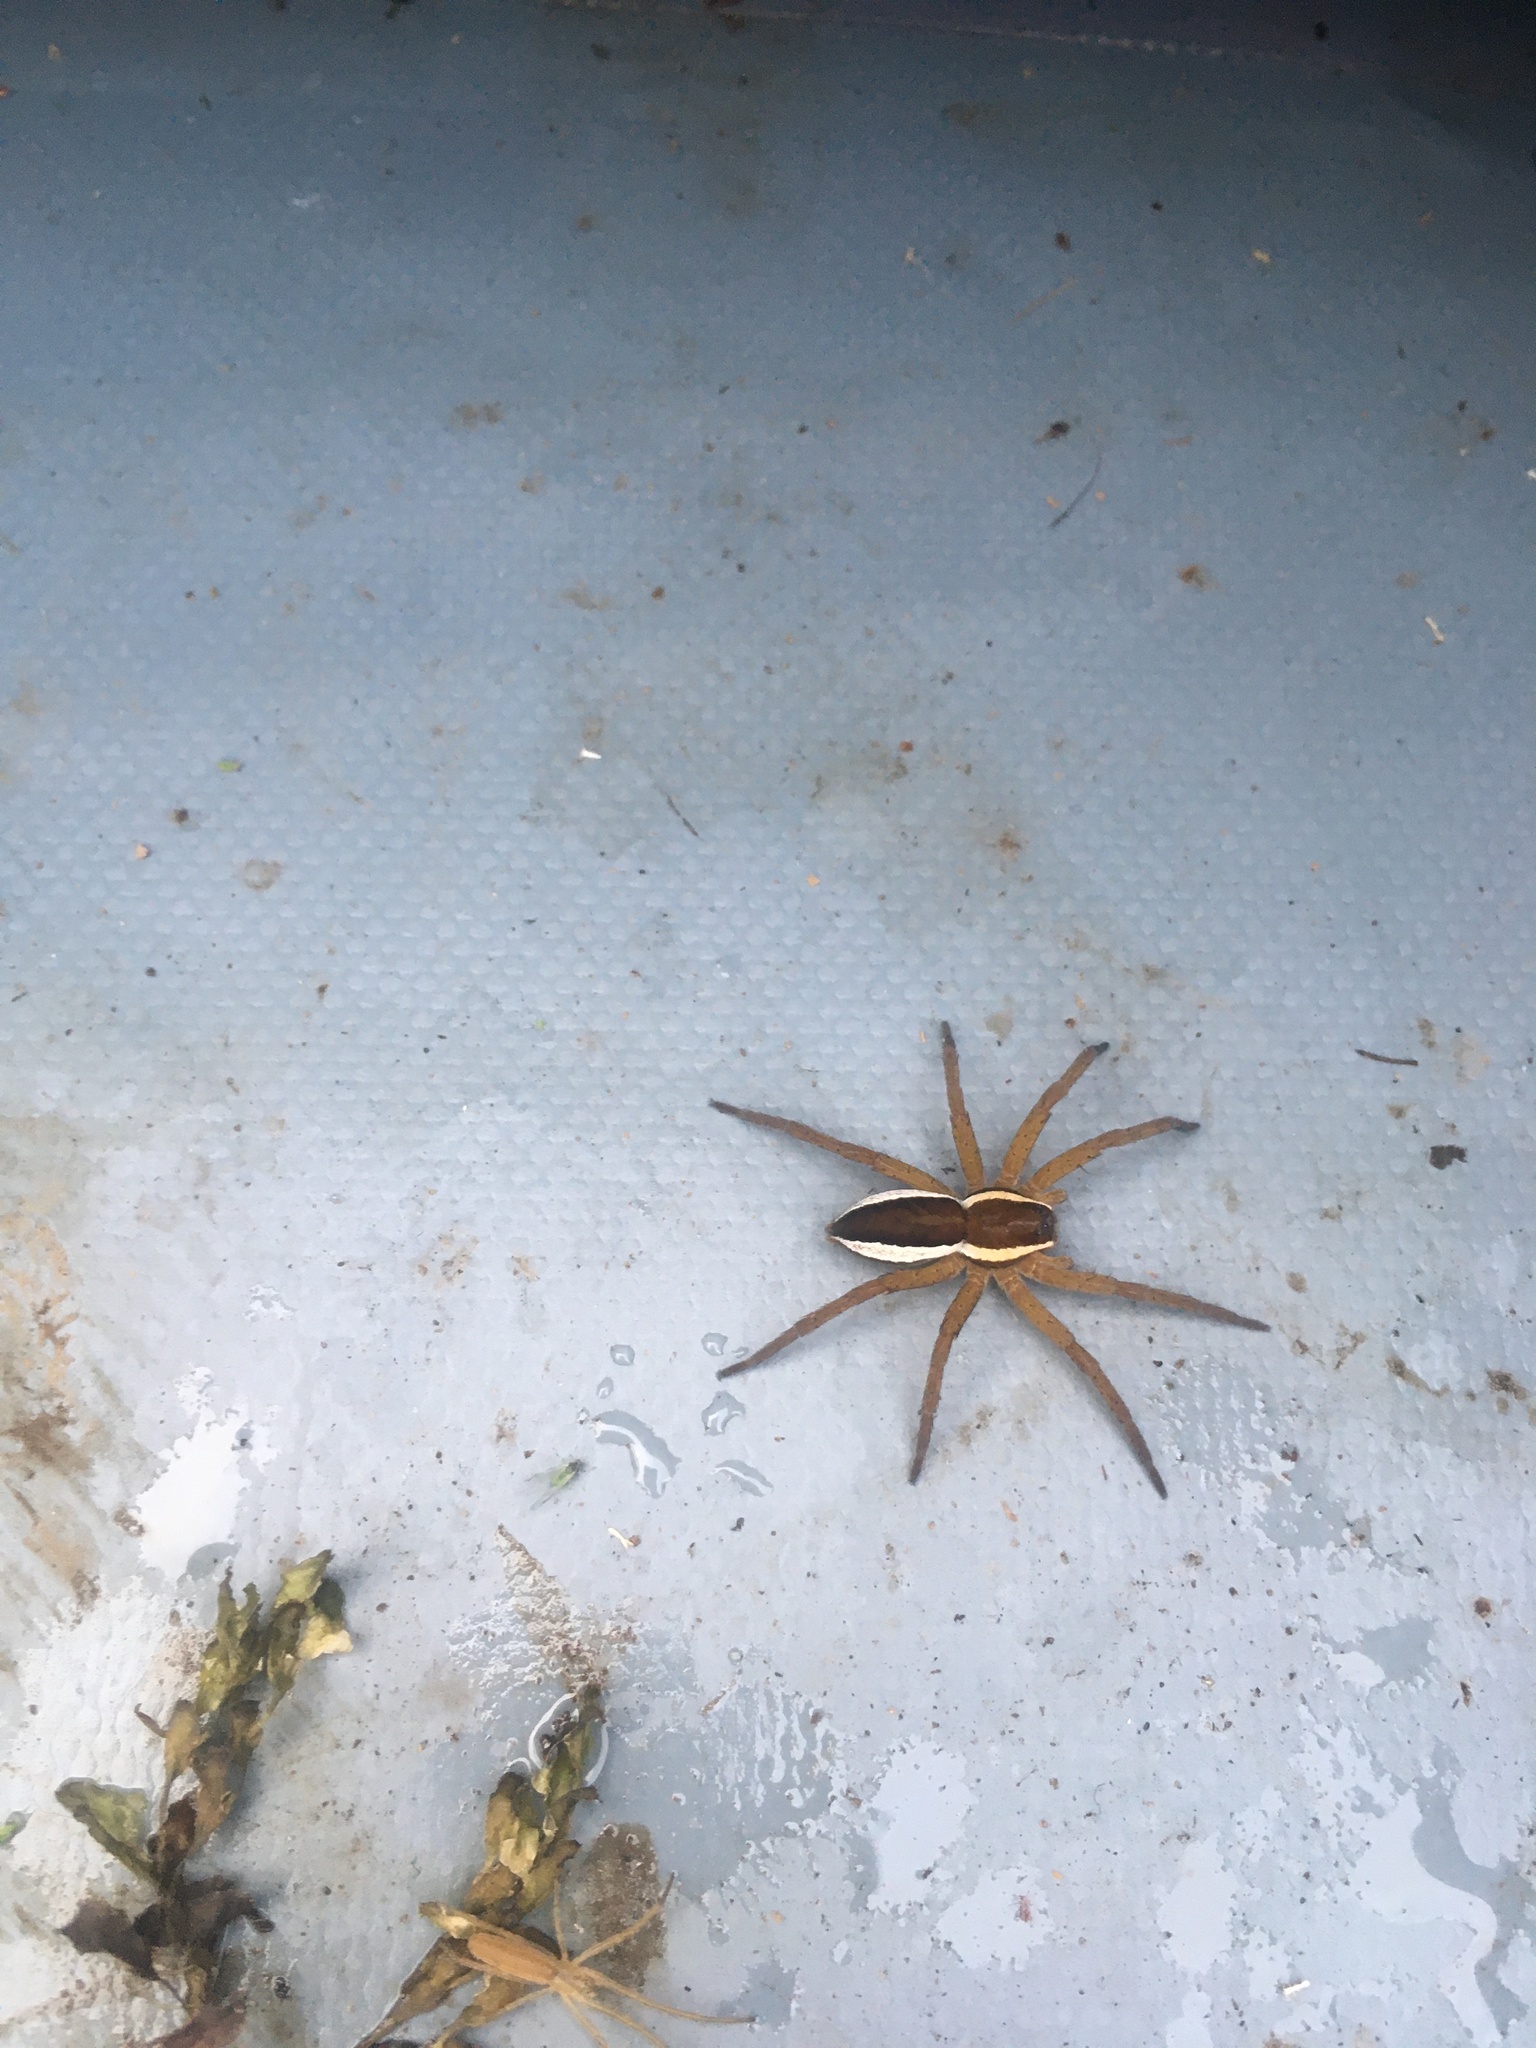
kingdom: Animalia
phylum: Arthropoda
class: Arachnida
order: Araneae
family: Pisauridae
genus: Dolomedes
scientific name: Dolomedes fimbriatus
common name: Raft spider
